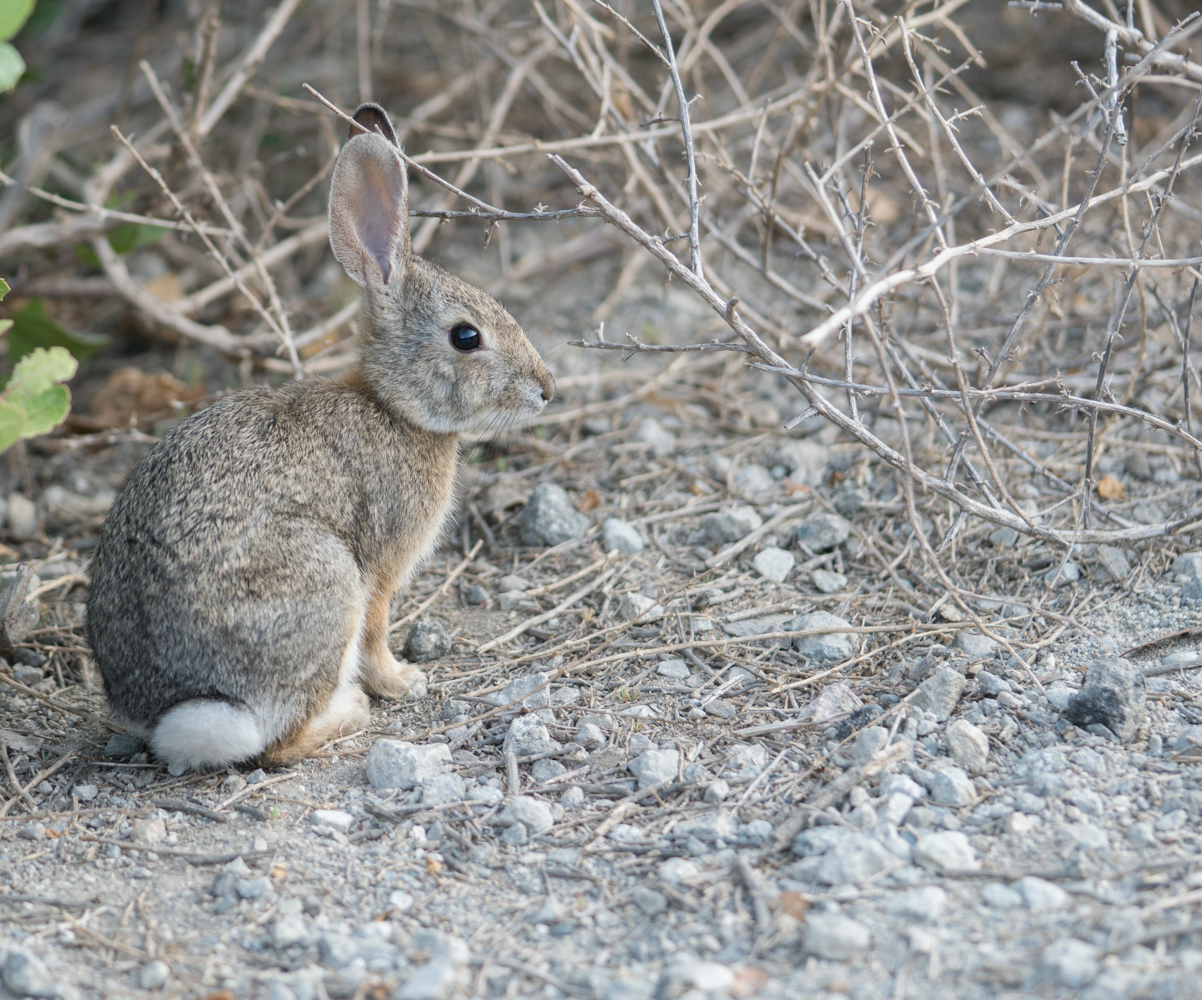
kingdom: Animalia
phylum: Chordata
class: Mammalia
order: Lagomorpha
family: Leporidae
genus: Sylvilagus
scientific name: Sylvilagus audubonii
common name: Desert cottontail
